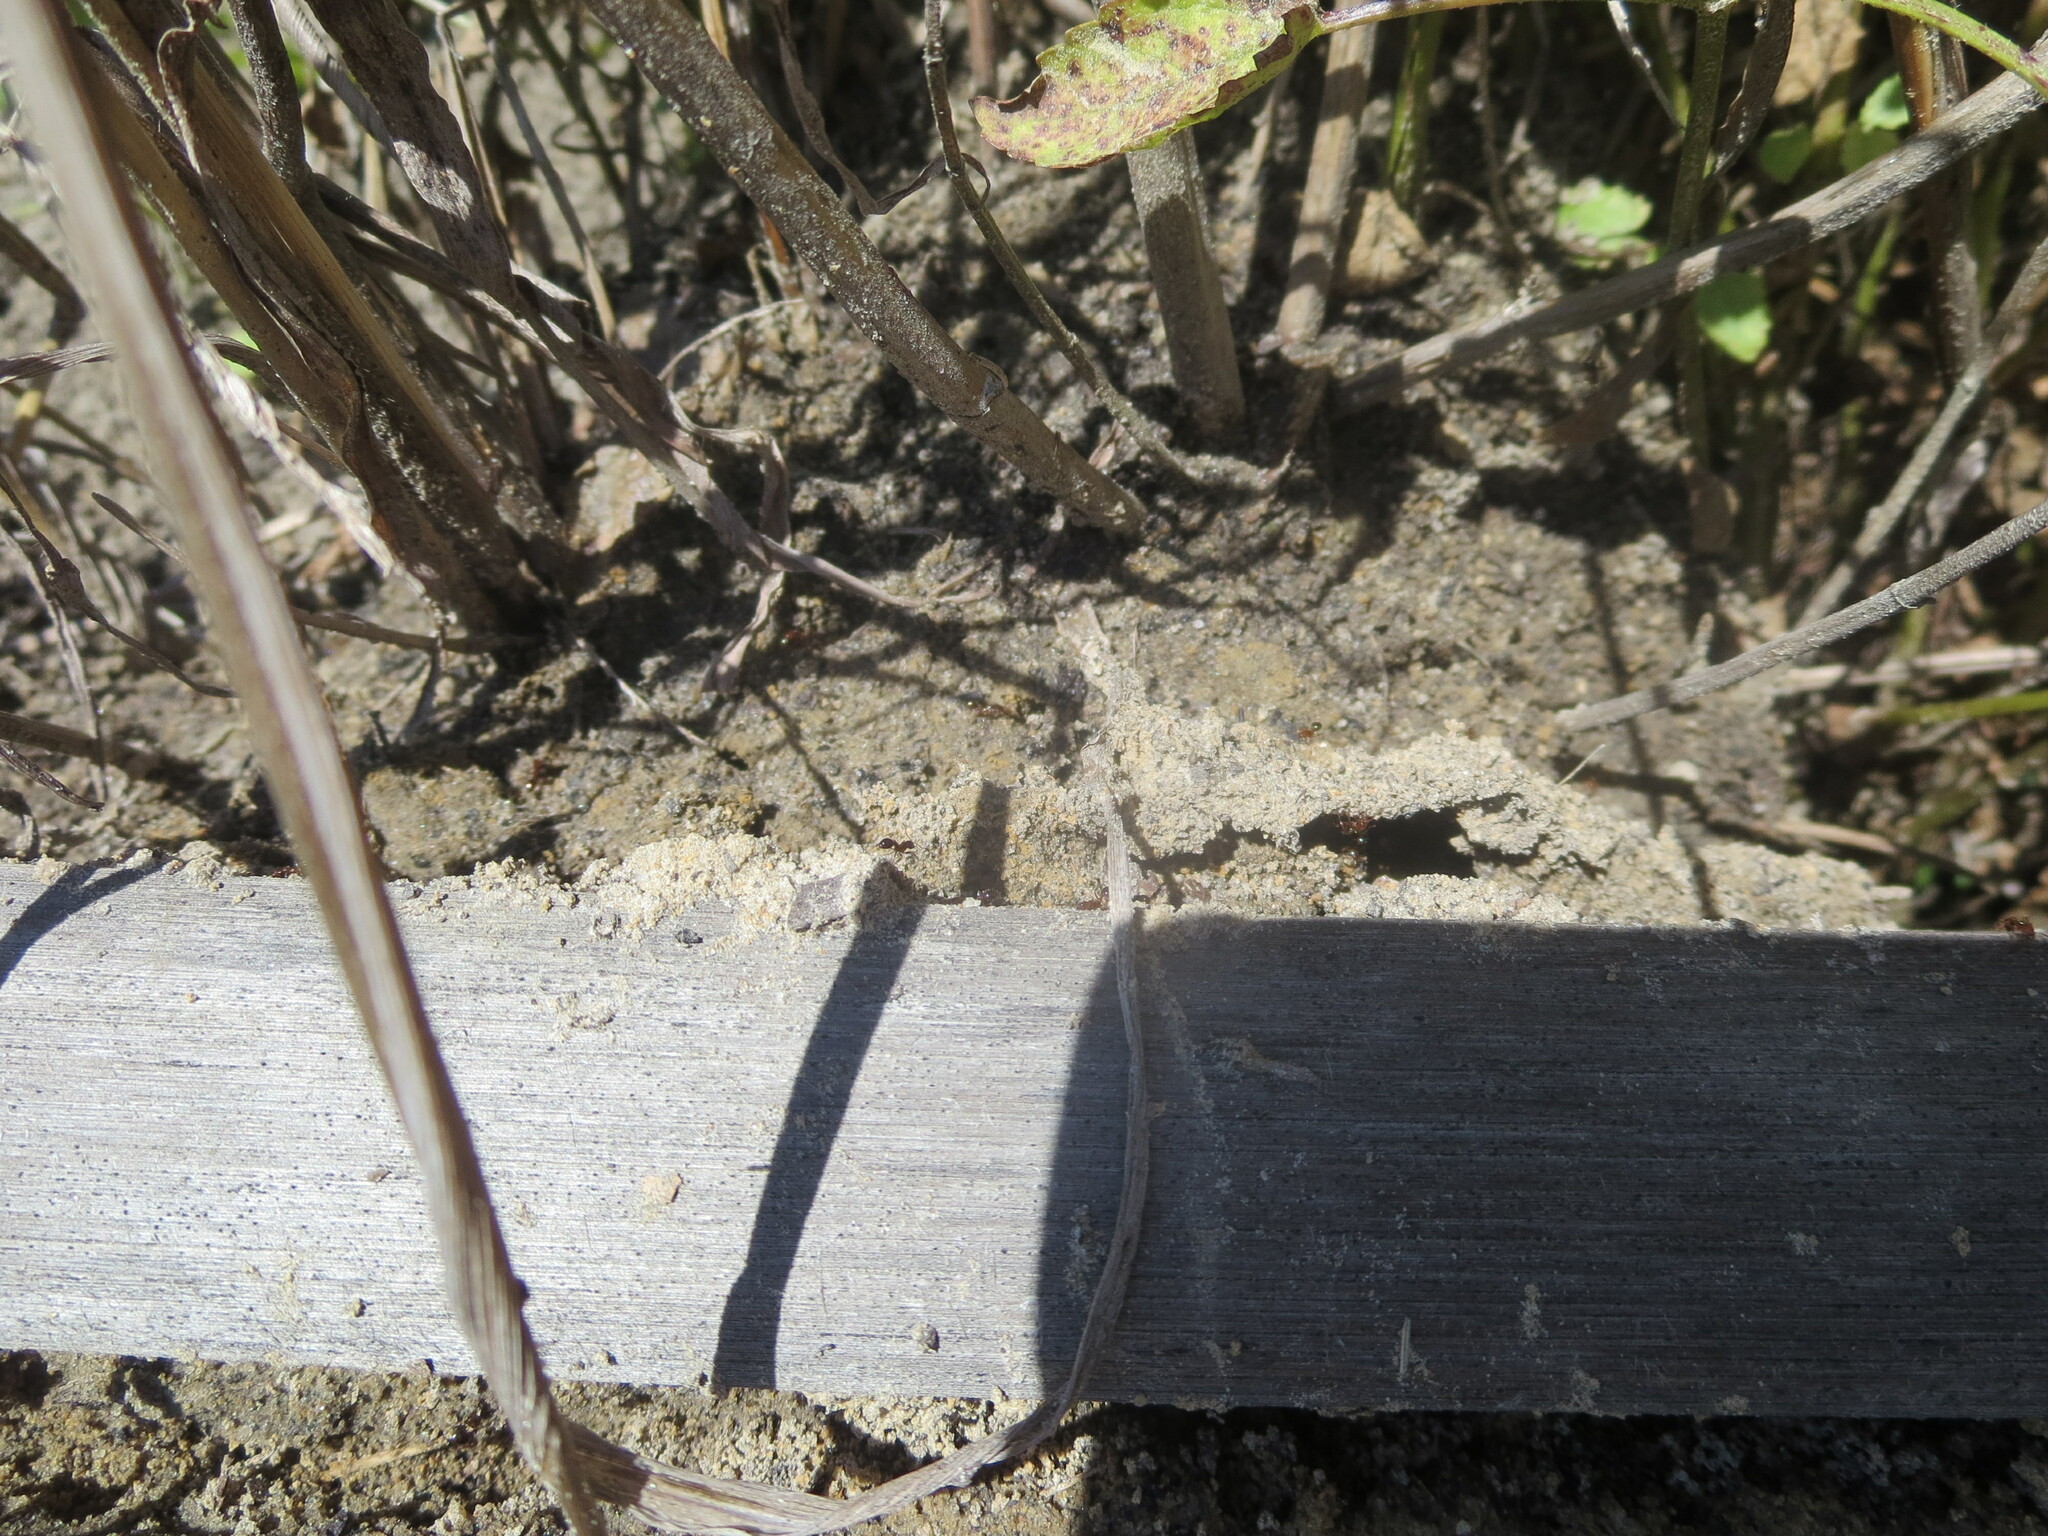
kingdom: Animalia
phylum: Arthropoda
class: Insecta
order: Hymenoptera
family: Formicidae
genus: Solenopsis
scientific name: Solenopsis invicta
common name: Red imported fire ant
